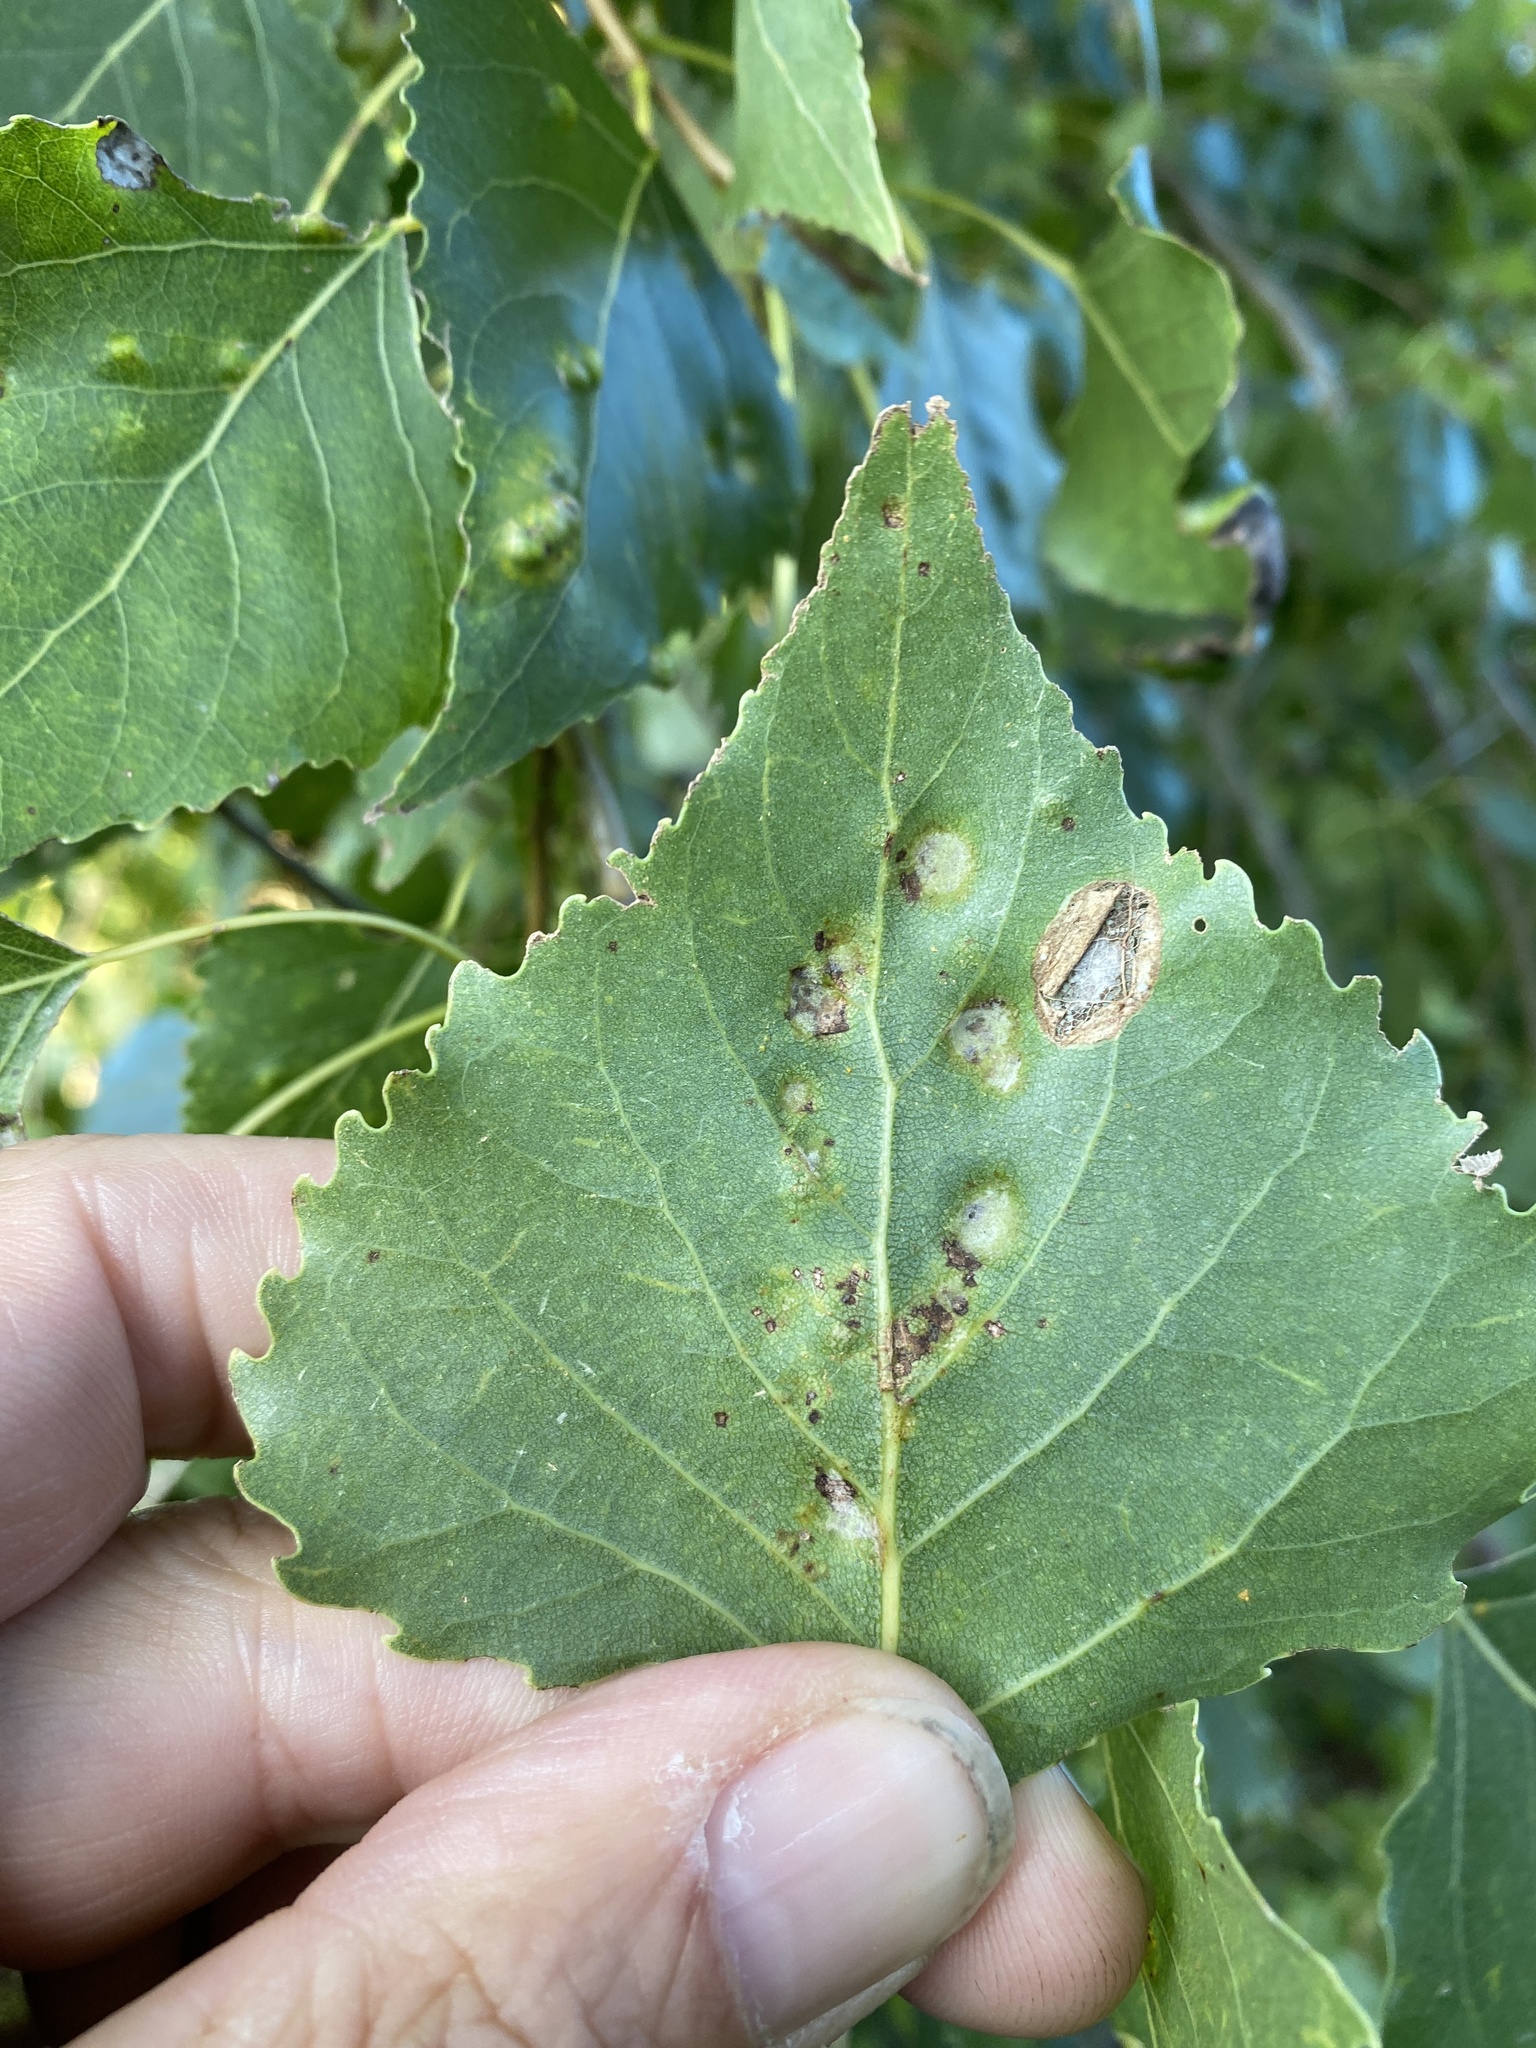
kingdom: Plantae
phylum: Tracheophyta
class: Magnoliopsida
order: Malpighiales
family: Salicaceae
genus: Populus
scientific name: Populus canadensis
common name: Carolina poplar
